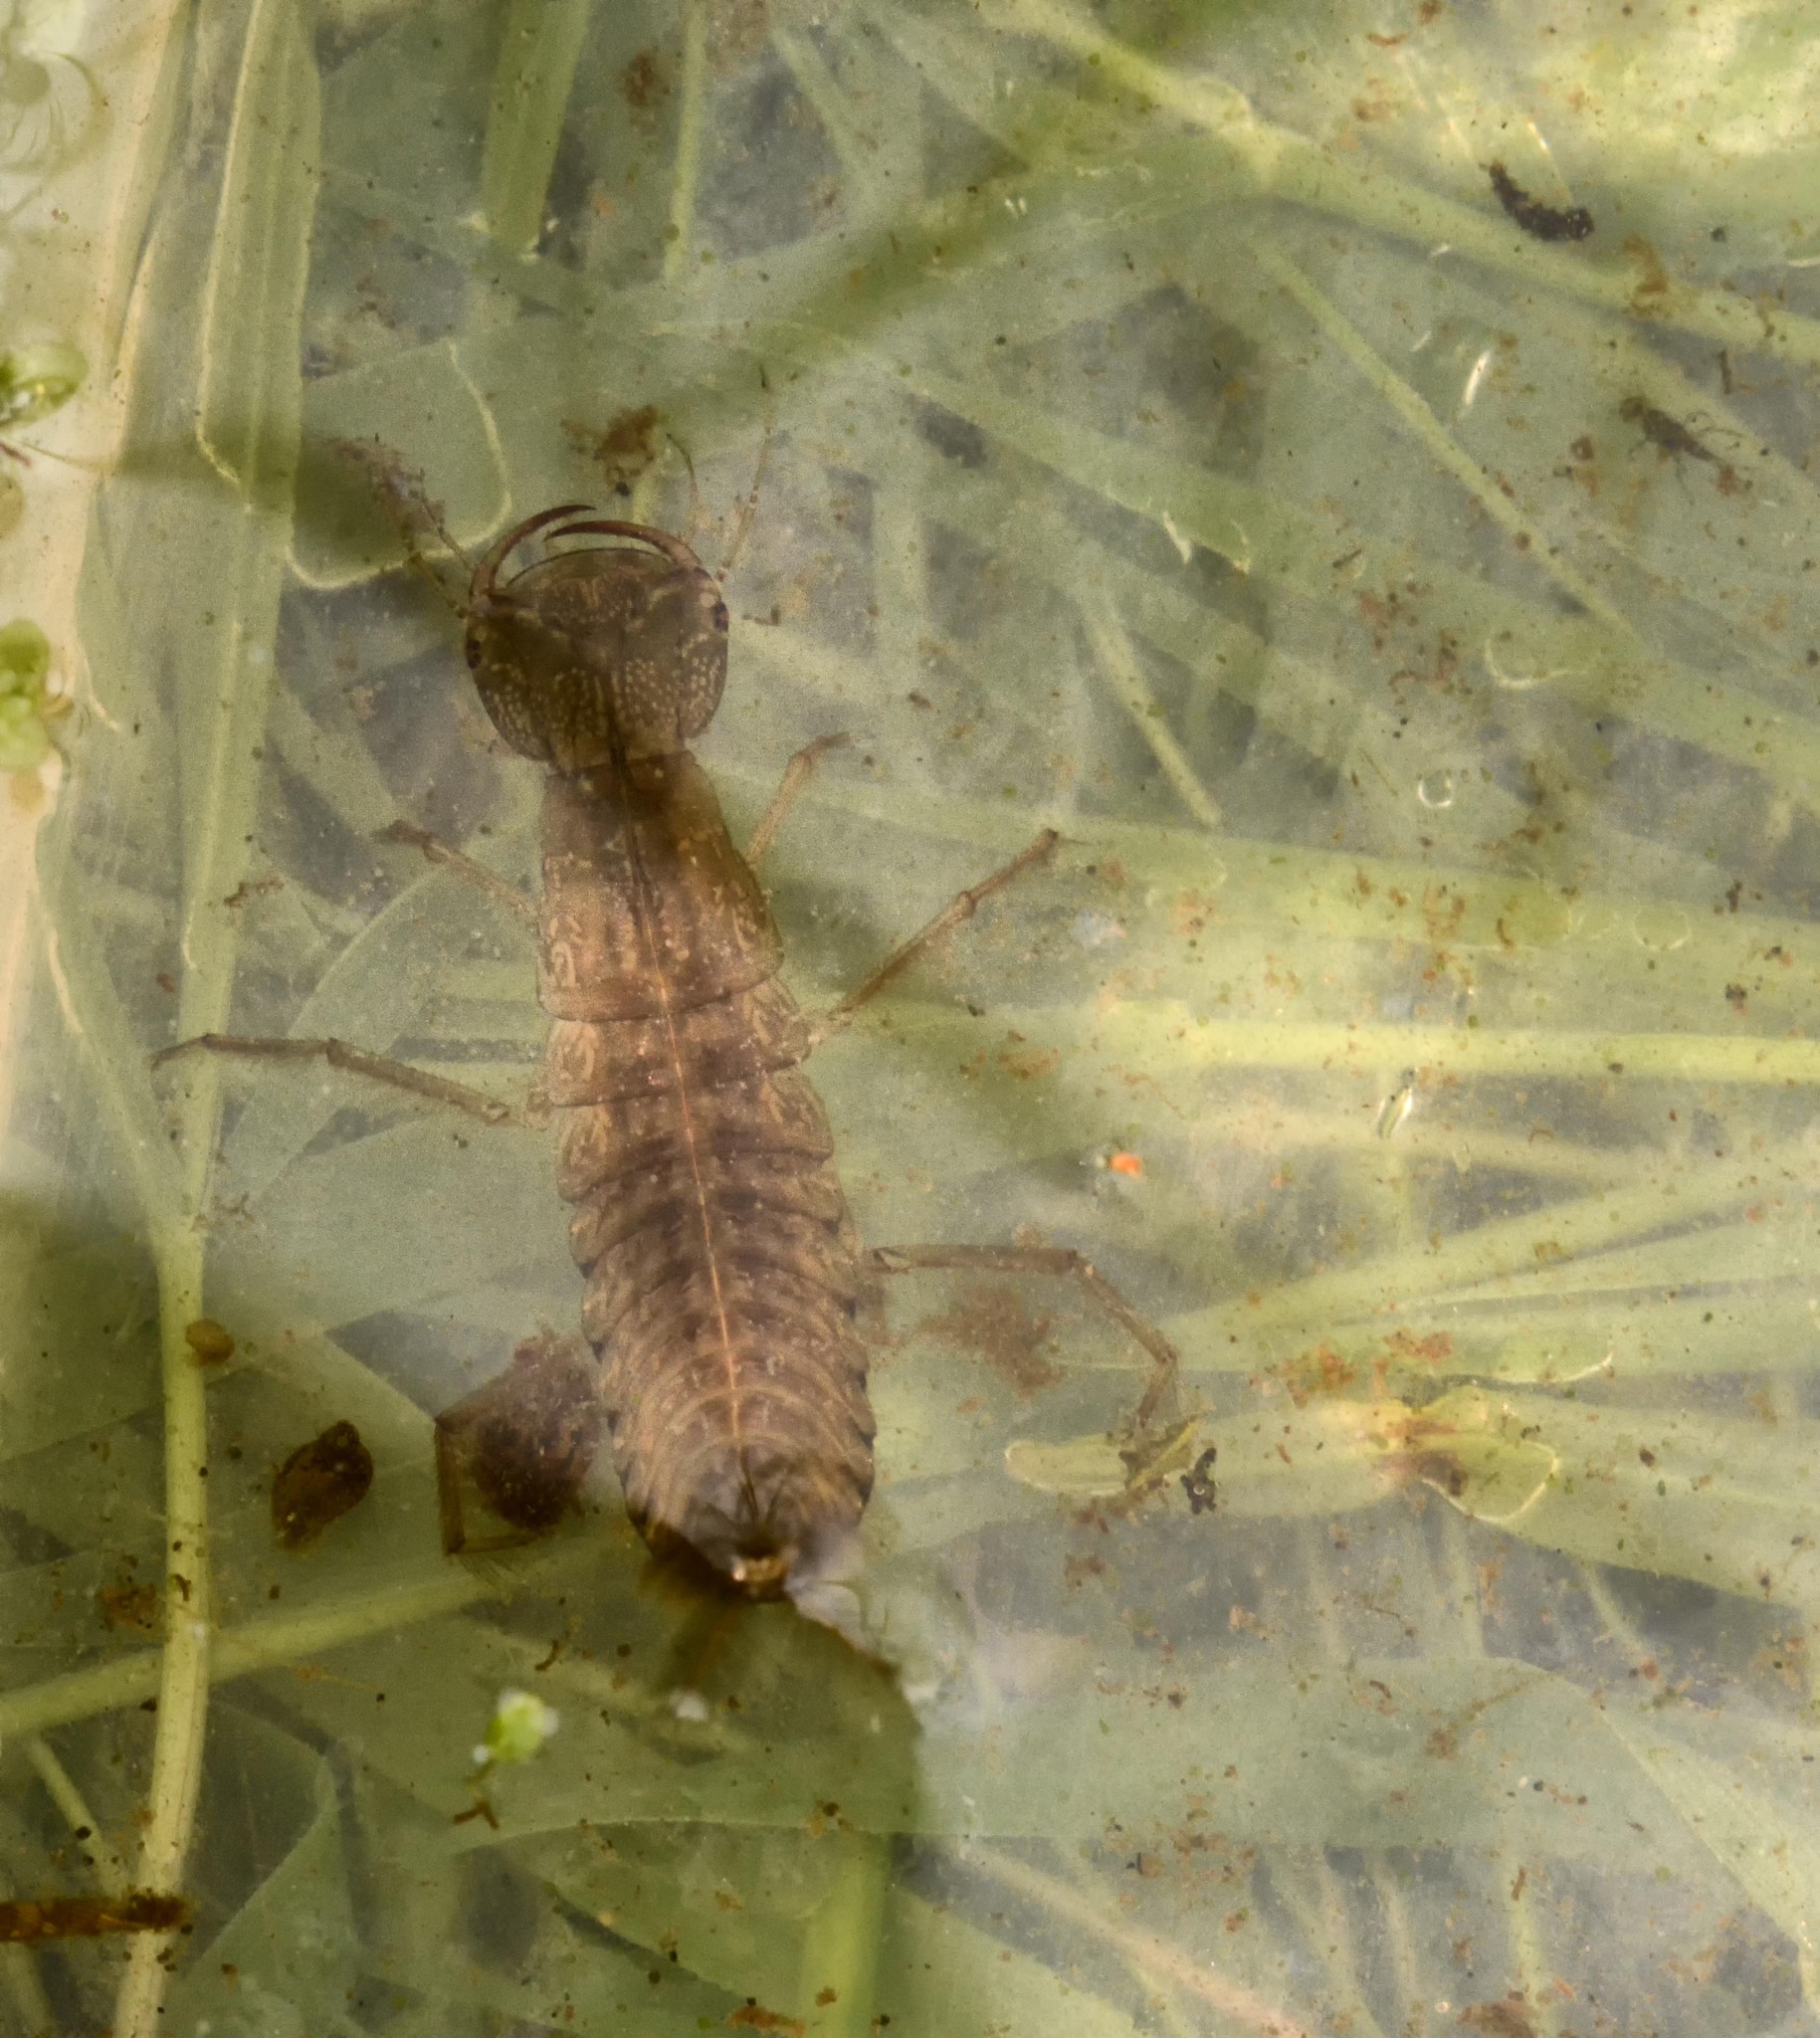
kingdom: Animalia
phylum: Arthropoda
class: Insecta
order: Coleoptera
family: Dytiscidae
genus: Dytiscus
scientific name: Dytiscus marginalis
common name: Great water beetle
